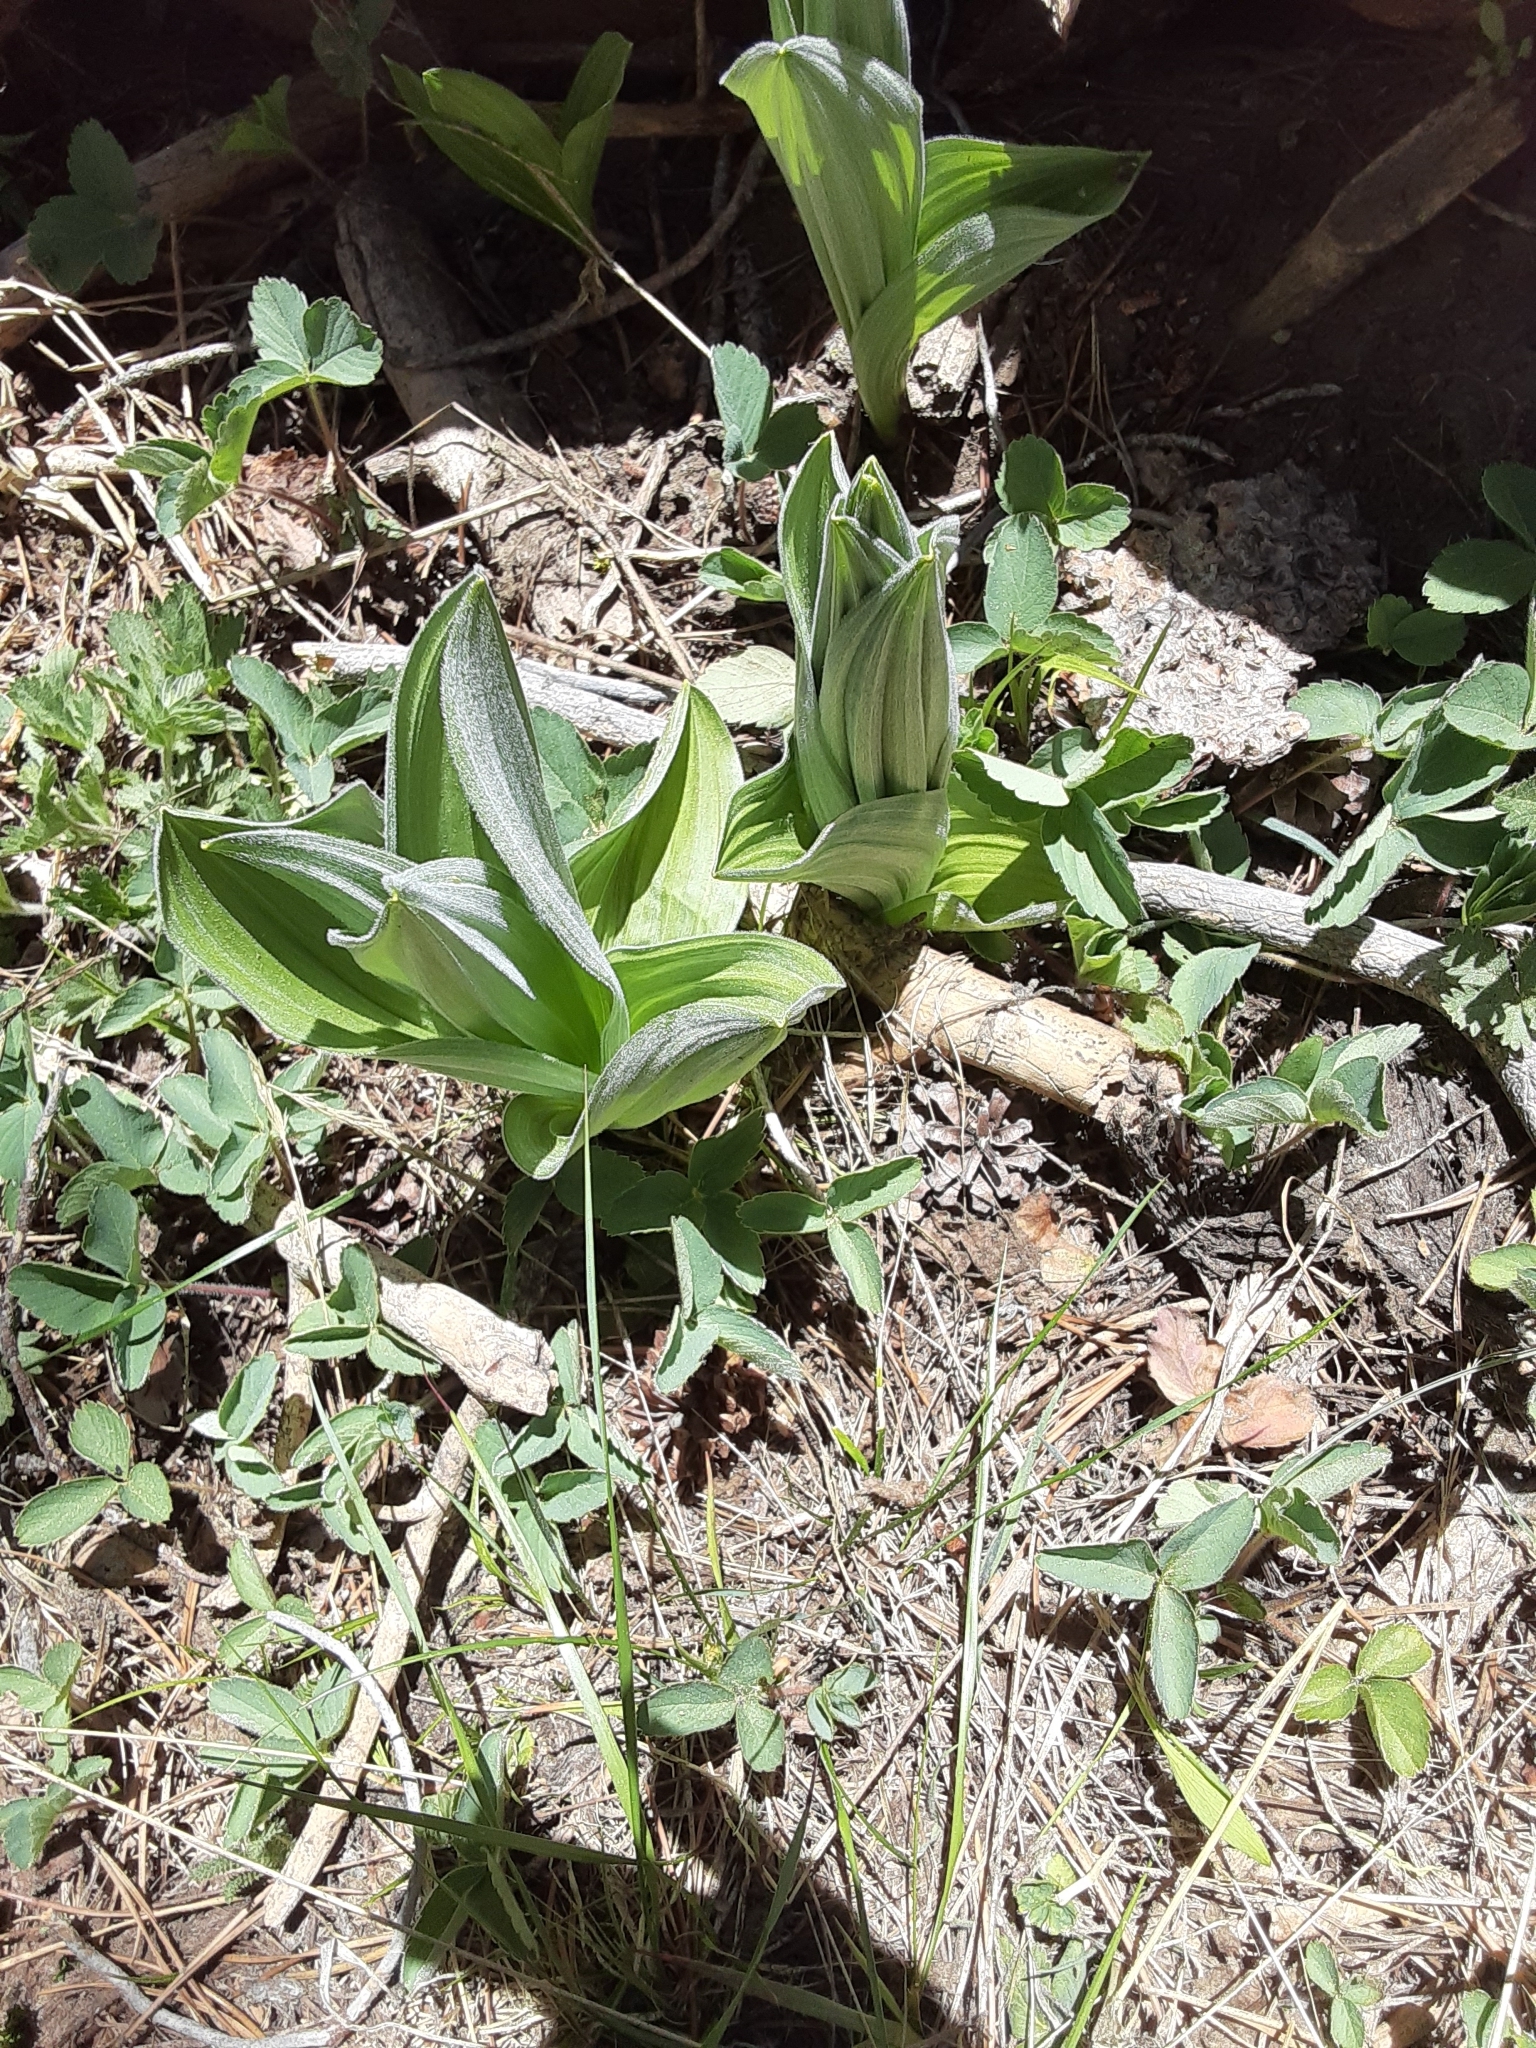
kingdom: Plantae
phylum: Tracheophyta
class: Liliopsida
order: Liliales
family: Melanthiaceae
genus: Veratrum
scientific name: Veratrum californicum
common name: California veratrum
